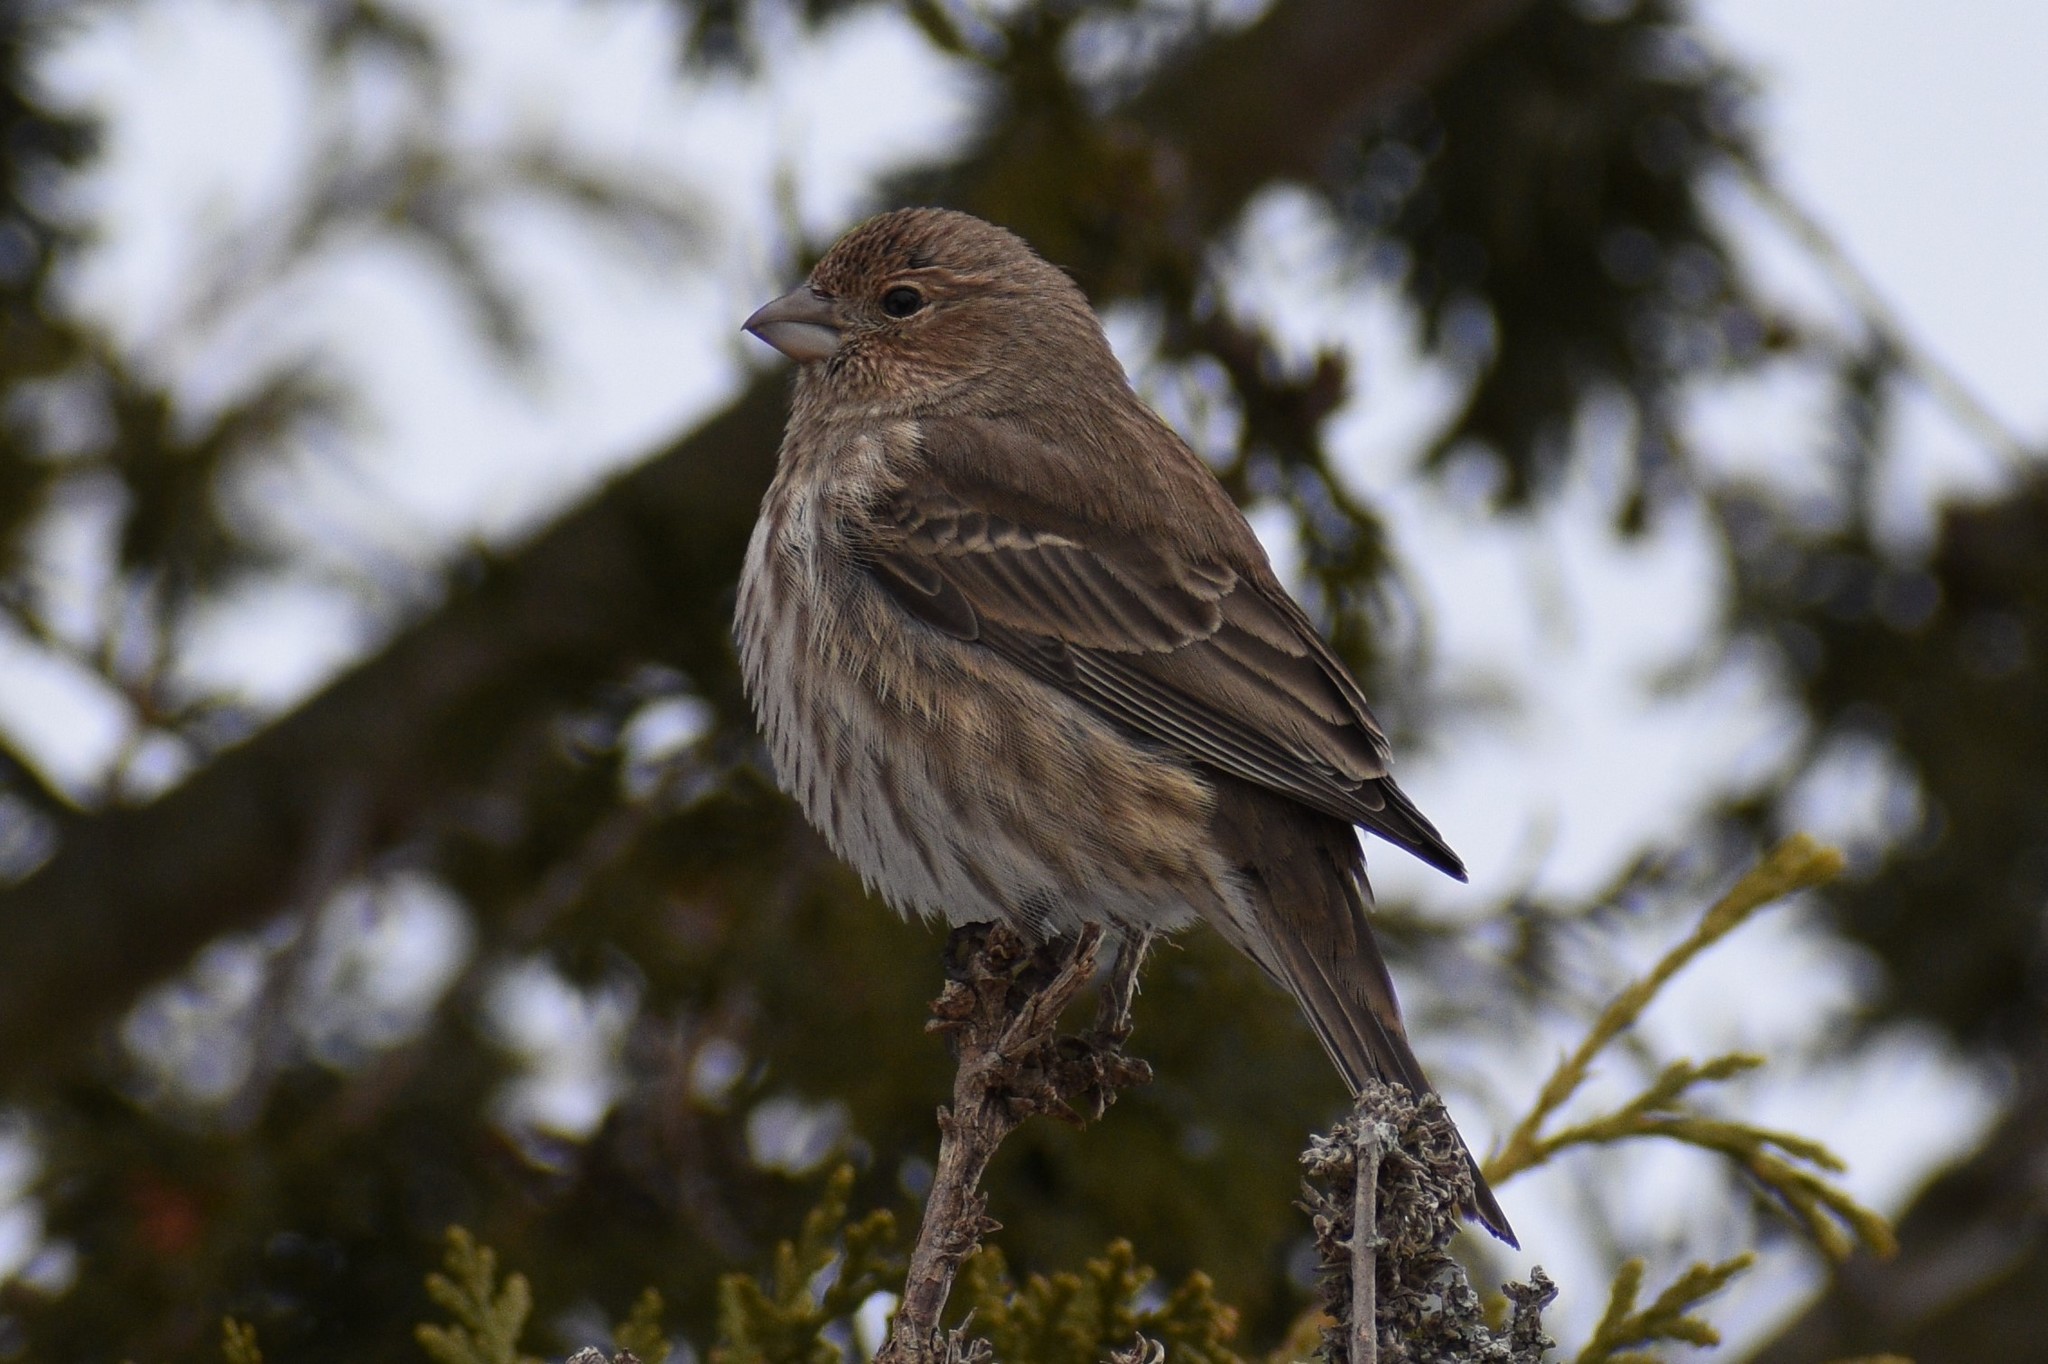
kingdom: Animalia
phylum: Chordata
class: Aves
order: Passeriformes
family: Fringillidae
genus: Haemorhous
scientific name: Haemorhous mexicanus
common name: House finch
